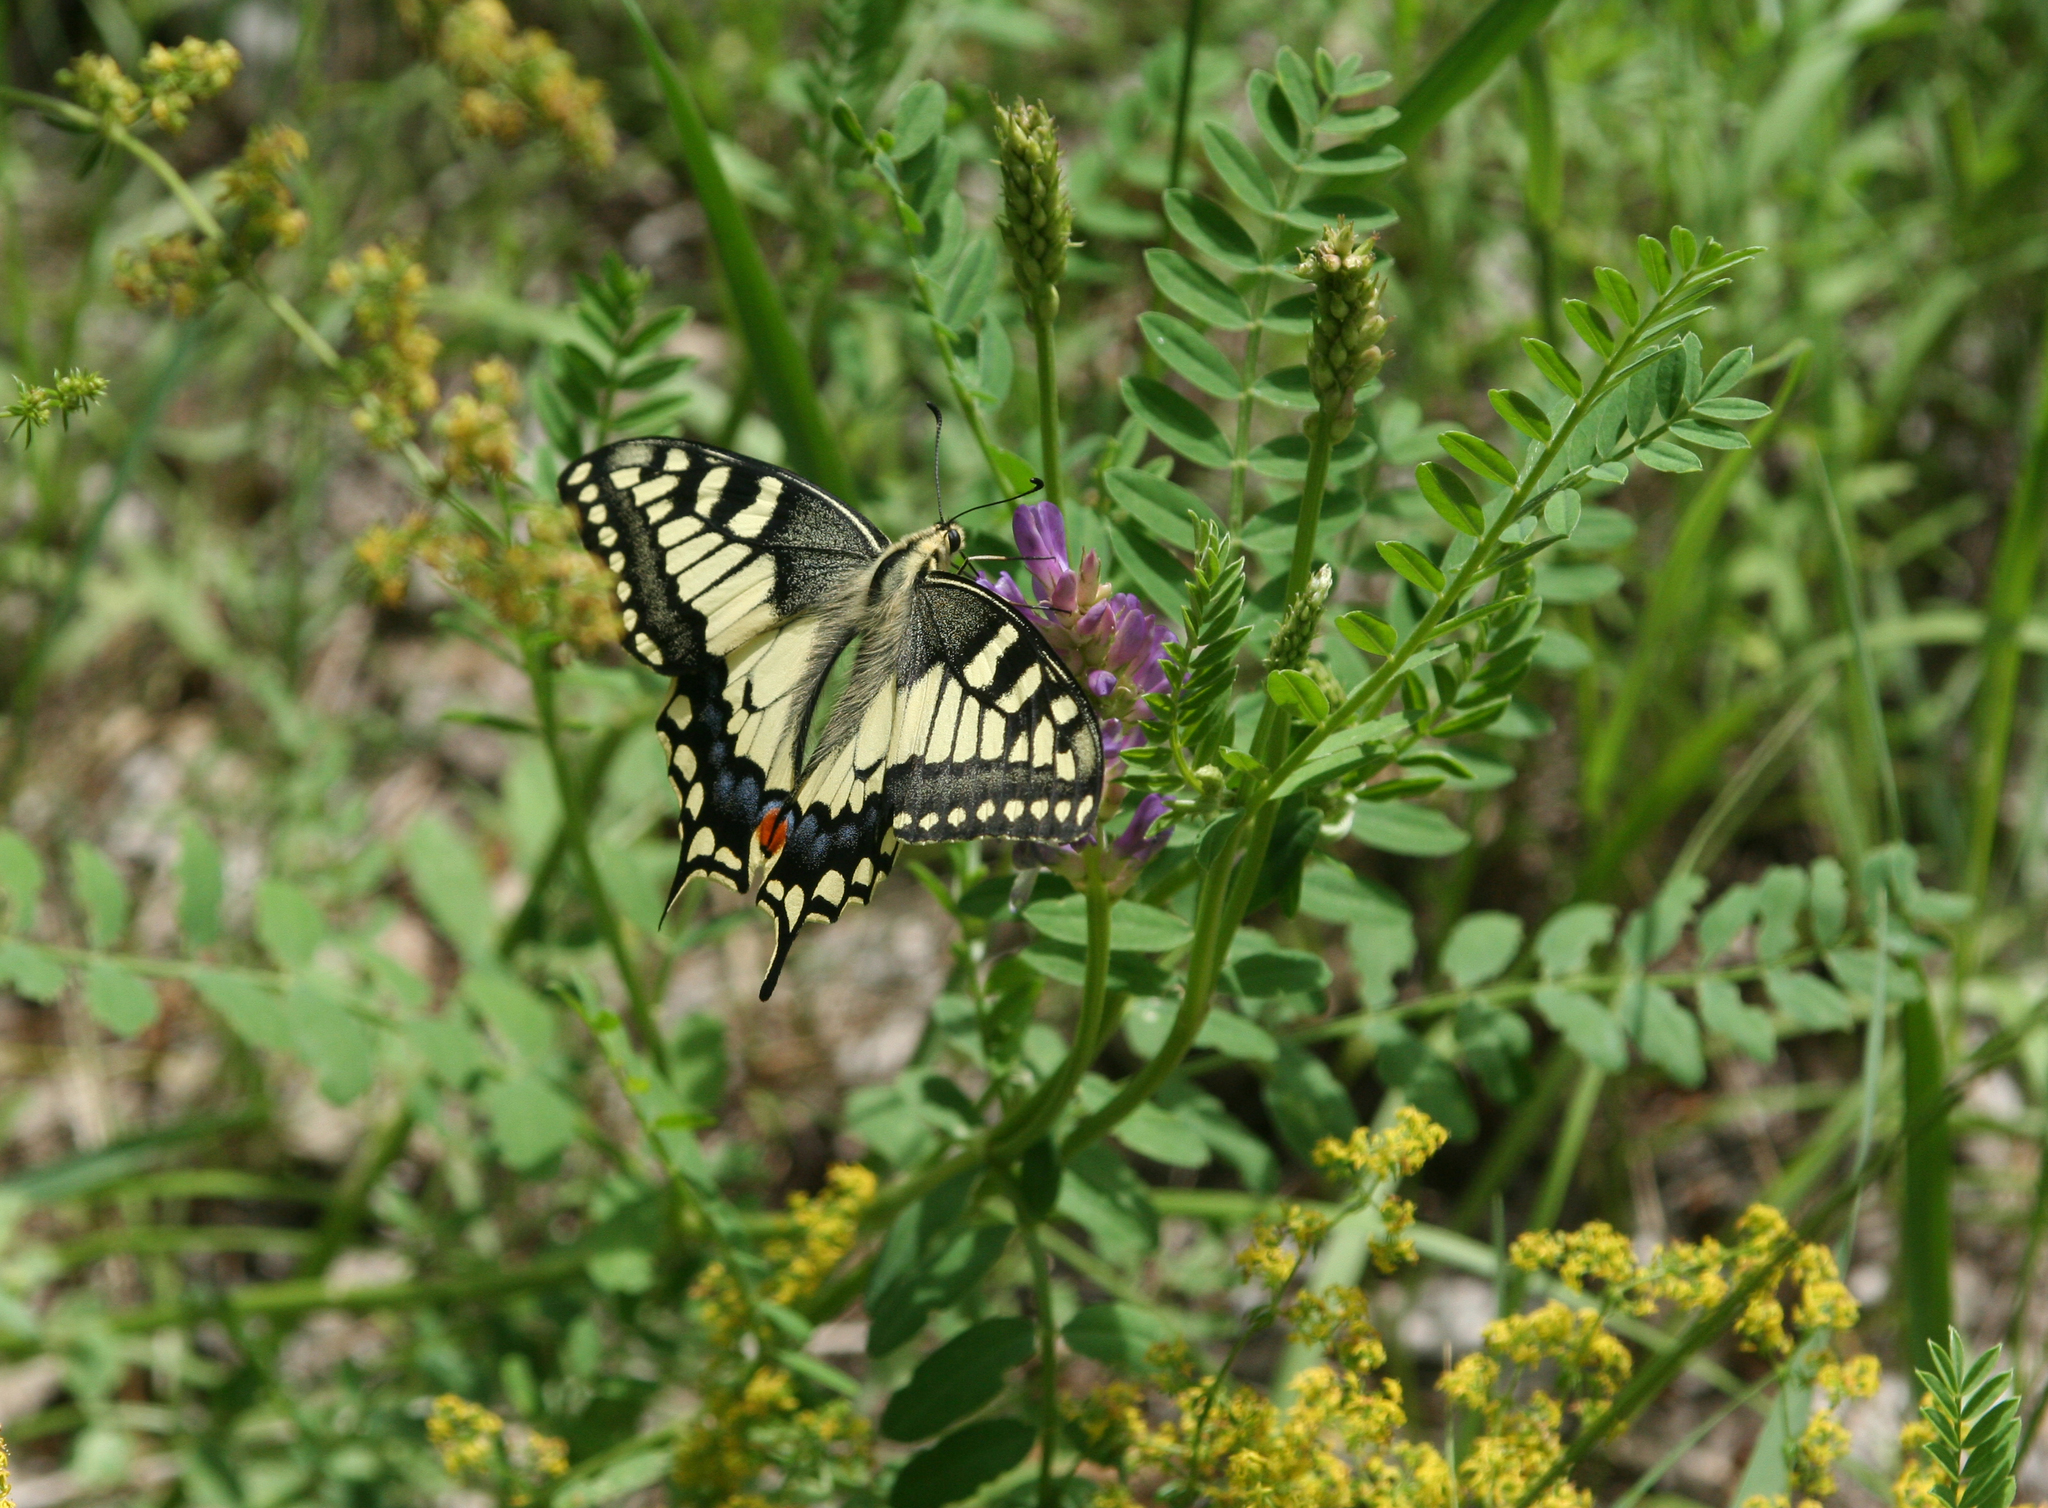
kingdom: Animalia
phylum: Arthropoda
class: Insecta
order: Lepidoptera
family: Papilionidae
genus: Papilio
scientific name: Papilio machaon
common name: Swallowtail
